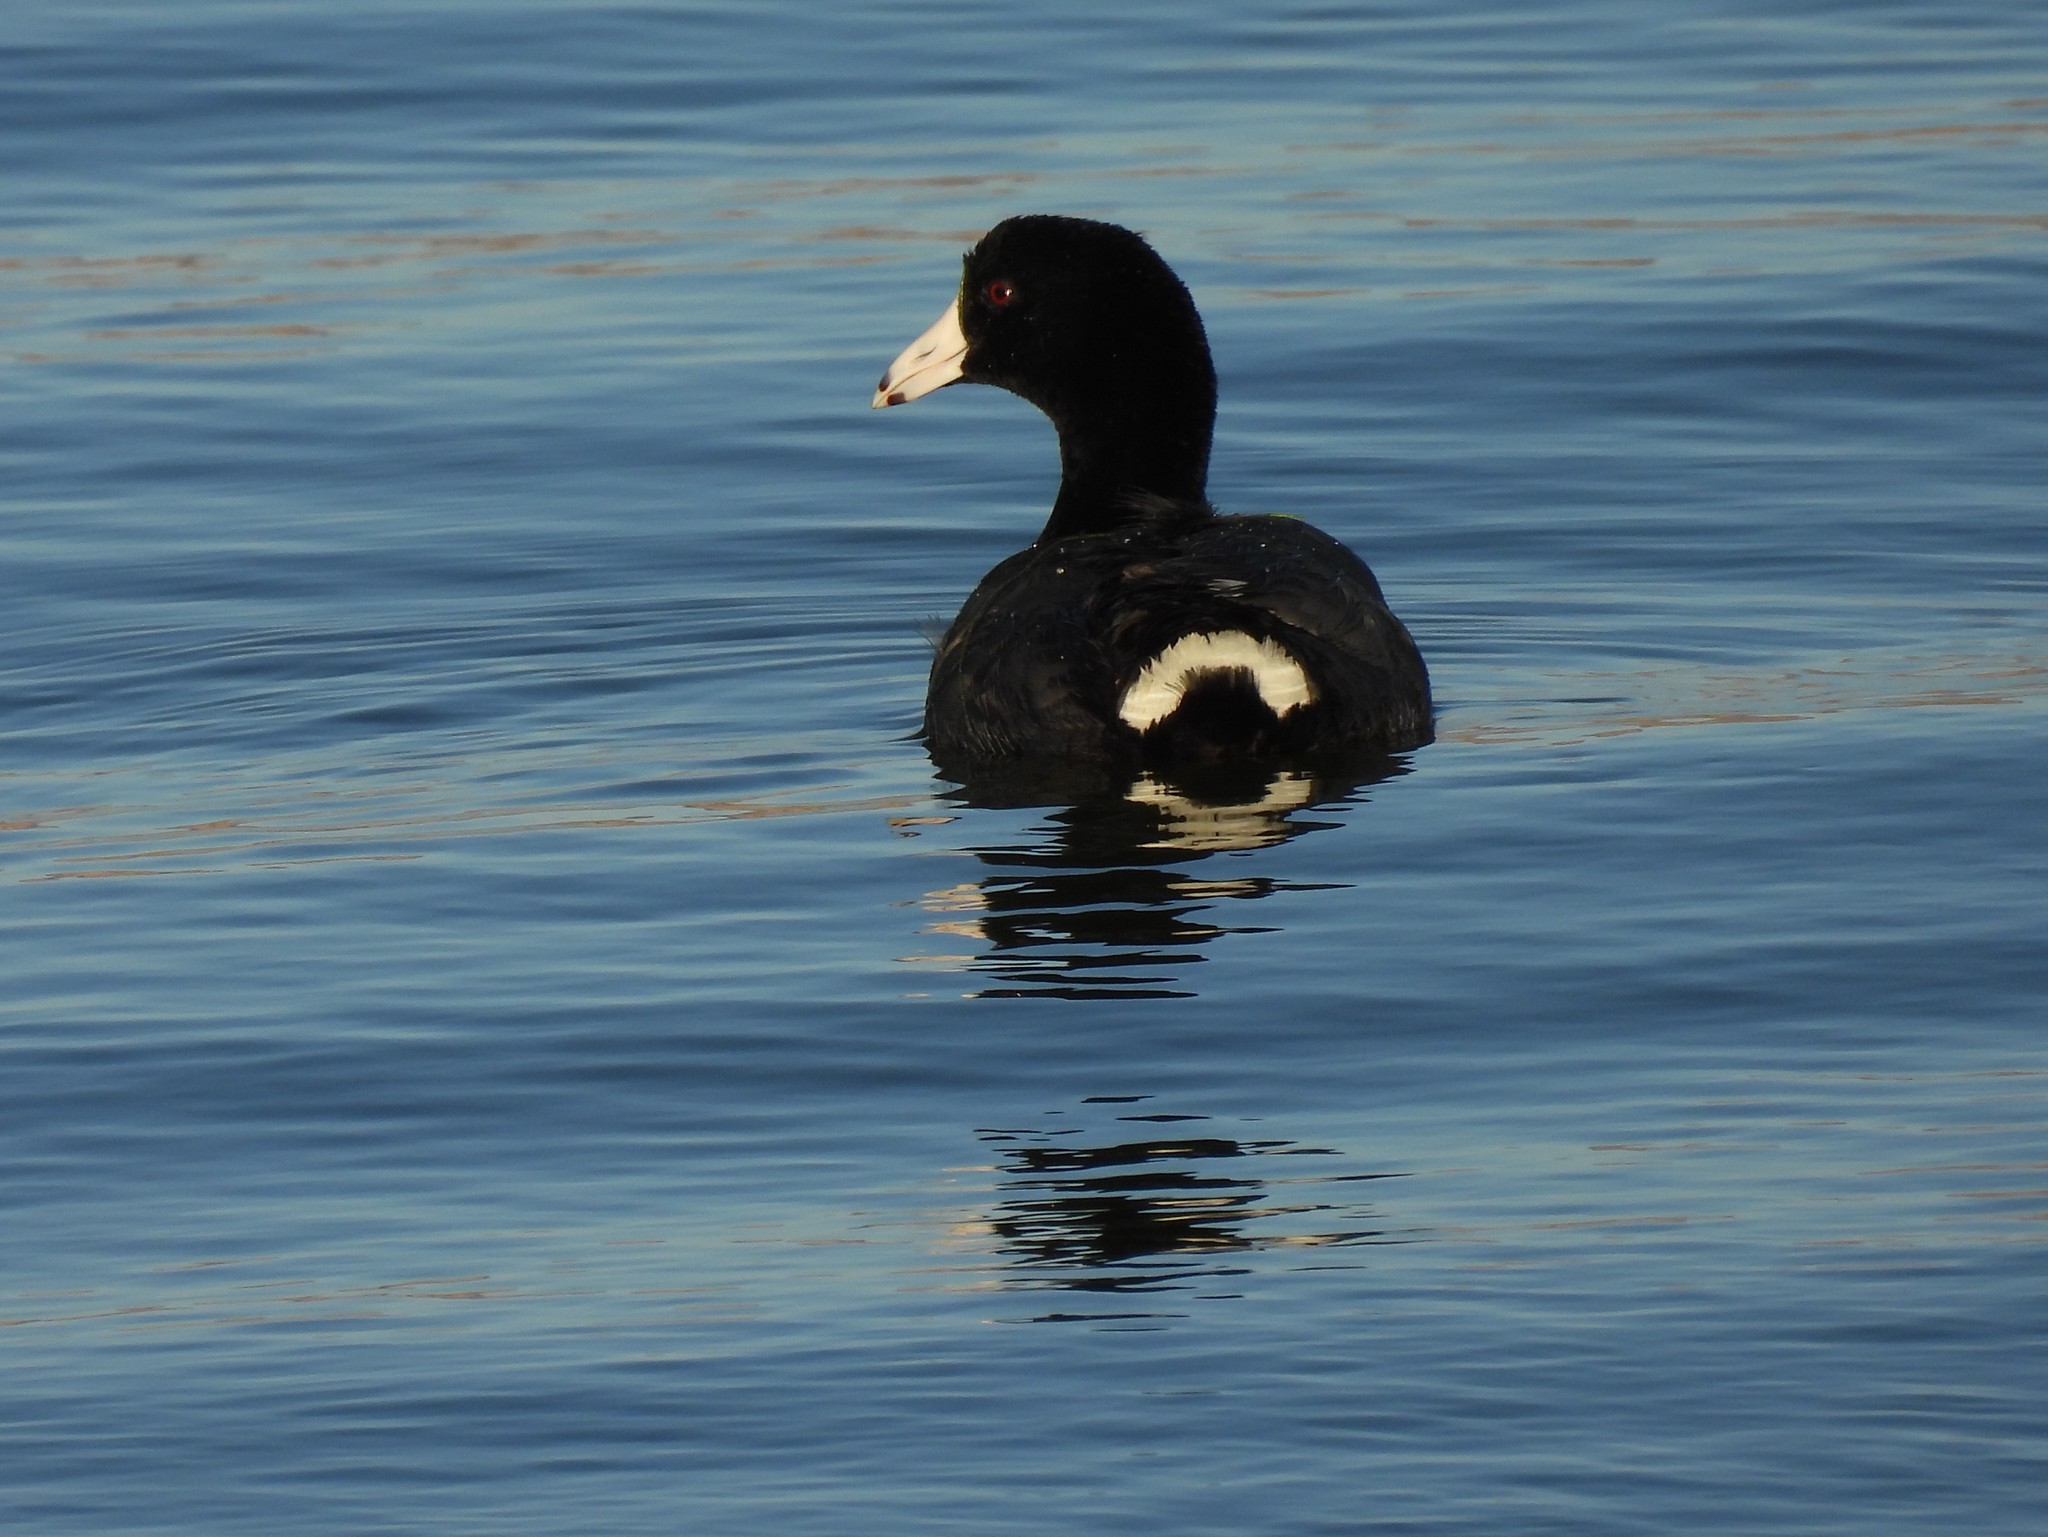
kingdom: Animalia
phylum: Chordata
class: Aves
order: Gruiformes
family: Rallidae
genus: Fulica
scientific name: Fulica americana
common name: American coot
